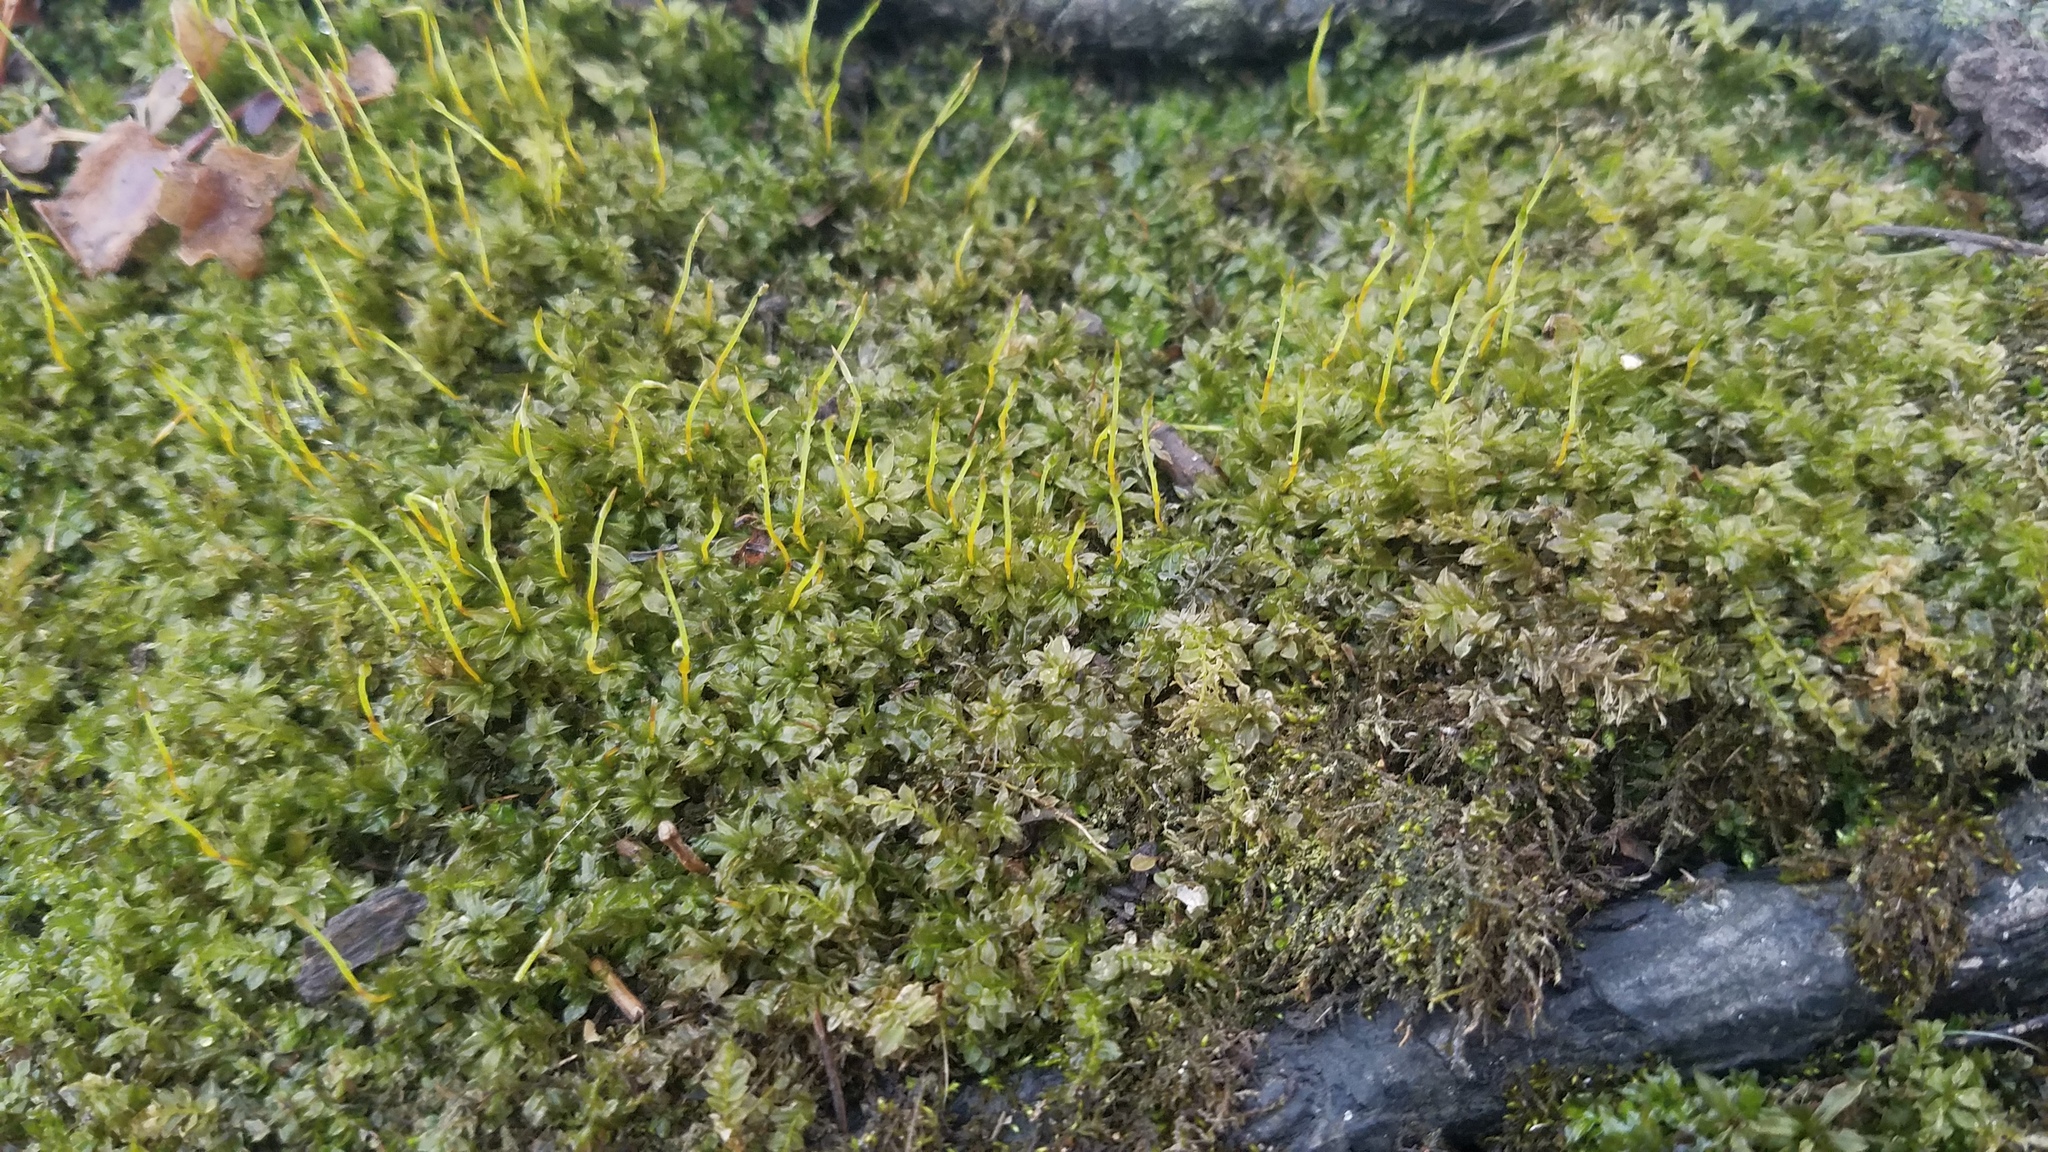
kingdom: Plantae
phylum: Bryophyta
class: Bryopsida
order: Bryales
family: Mniaceae
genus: Plagiomnium
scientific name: Plagiomnium cuspidatum
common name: Woodsy leafy moss
